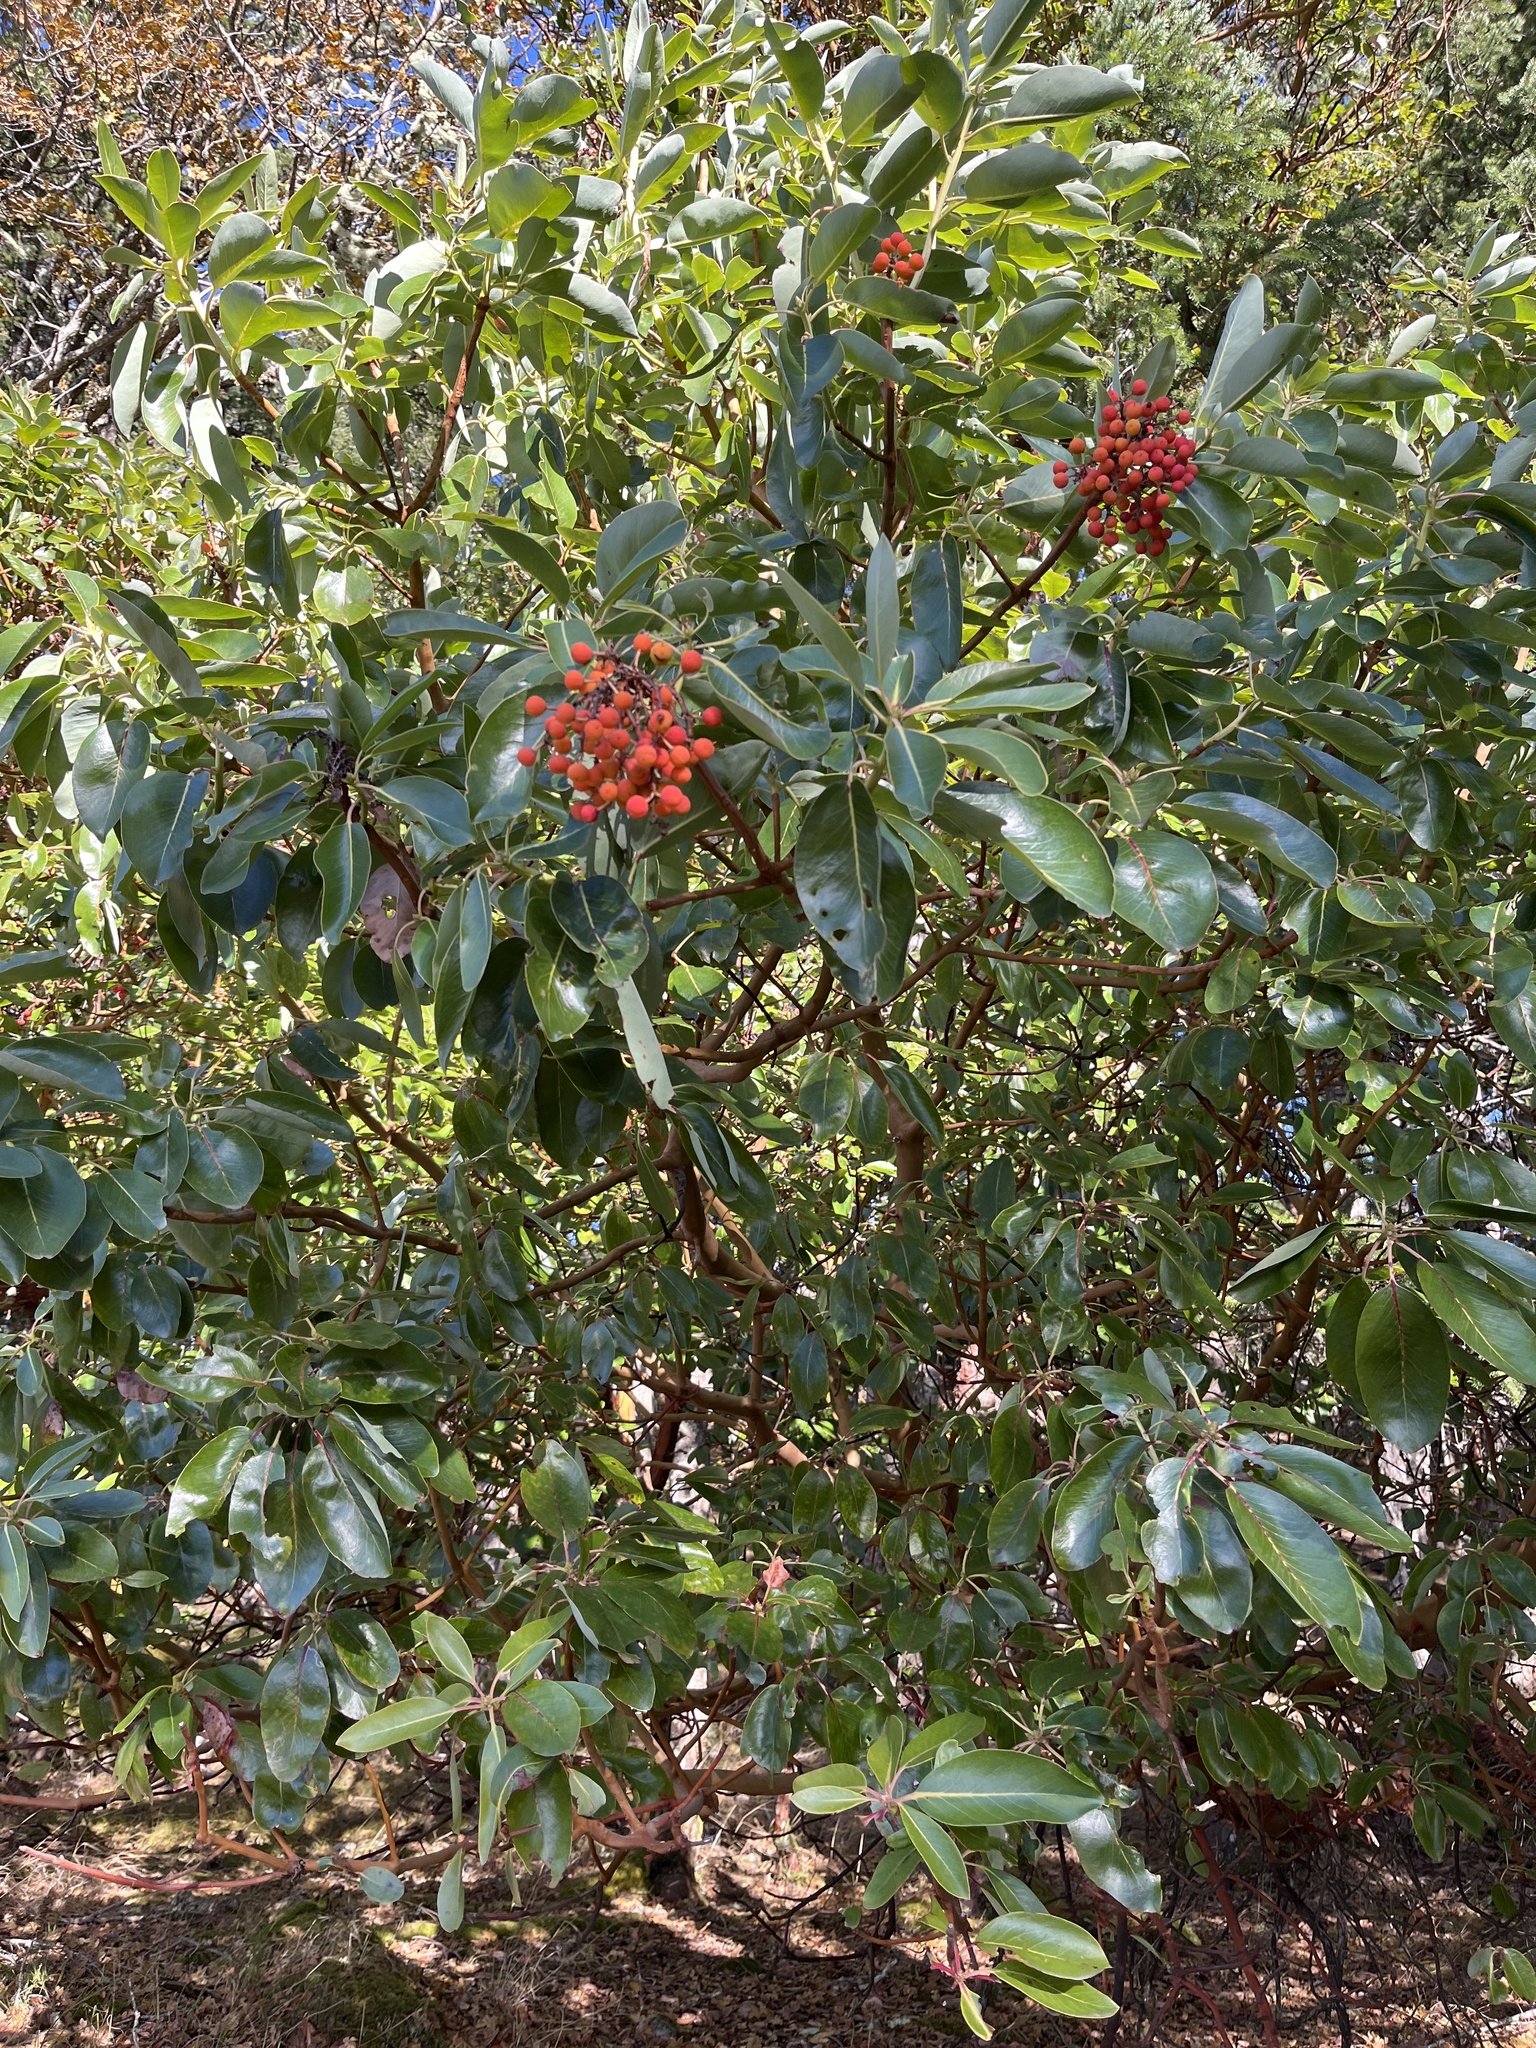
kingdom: Plantae
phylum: Tracheophyta
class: Magnoliopsida
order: Ericales
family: Ericaceae
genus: Arbutus
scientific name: Arbutus menziesii
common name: Pacific madrone
